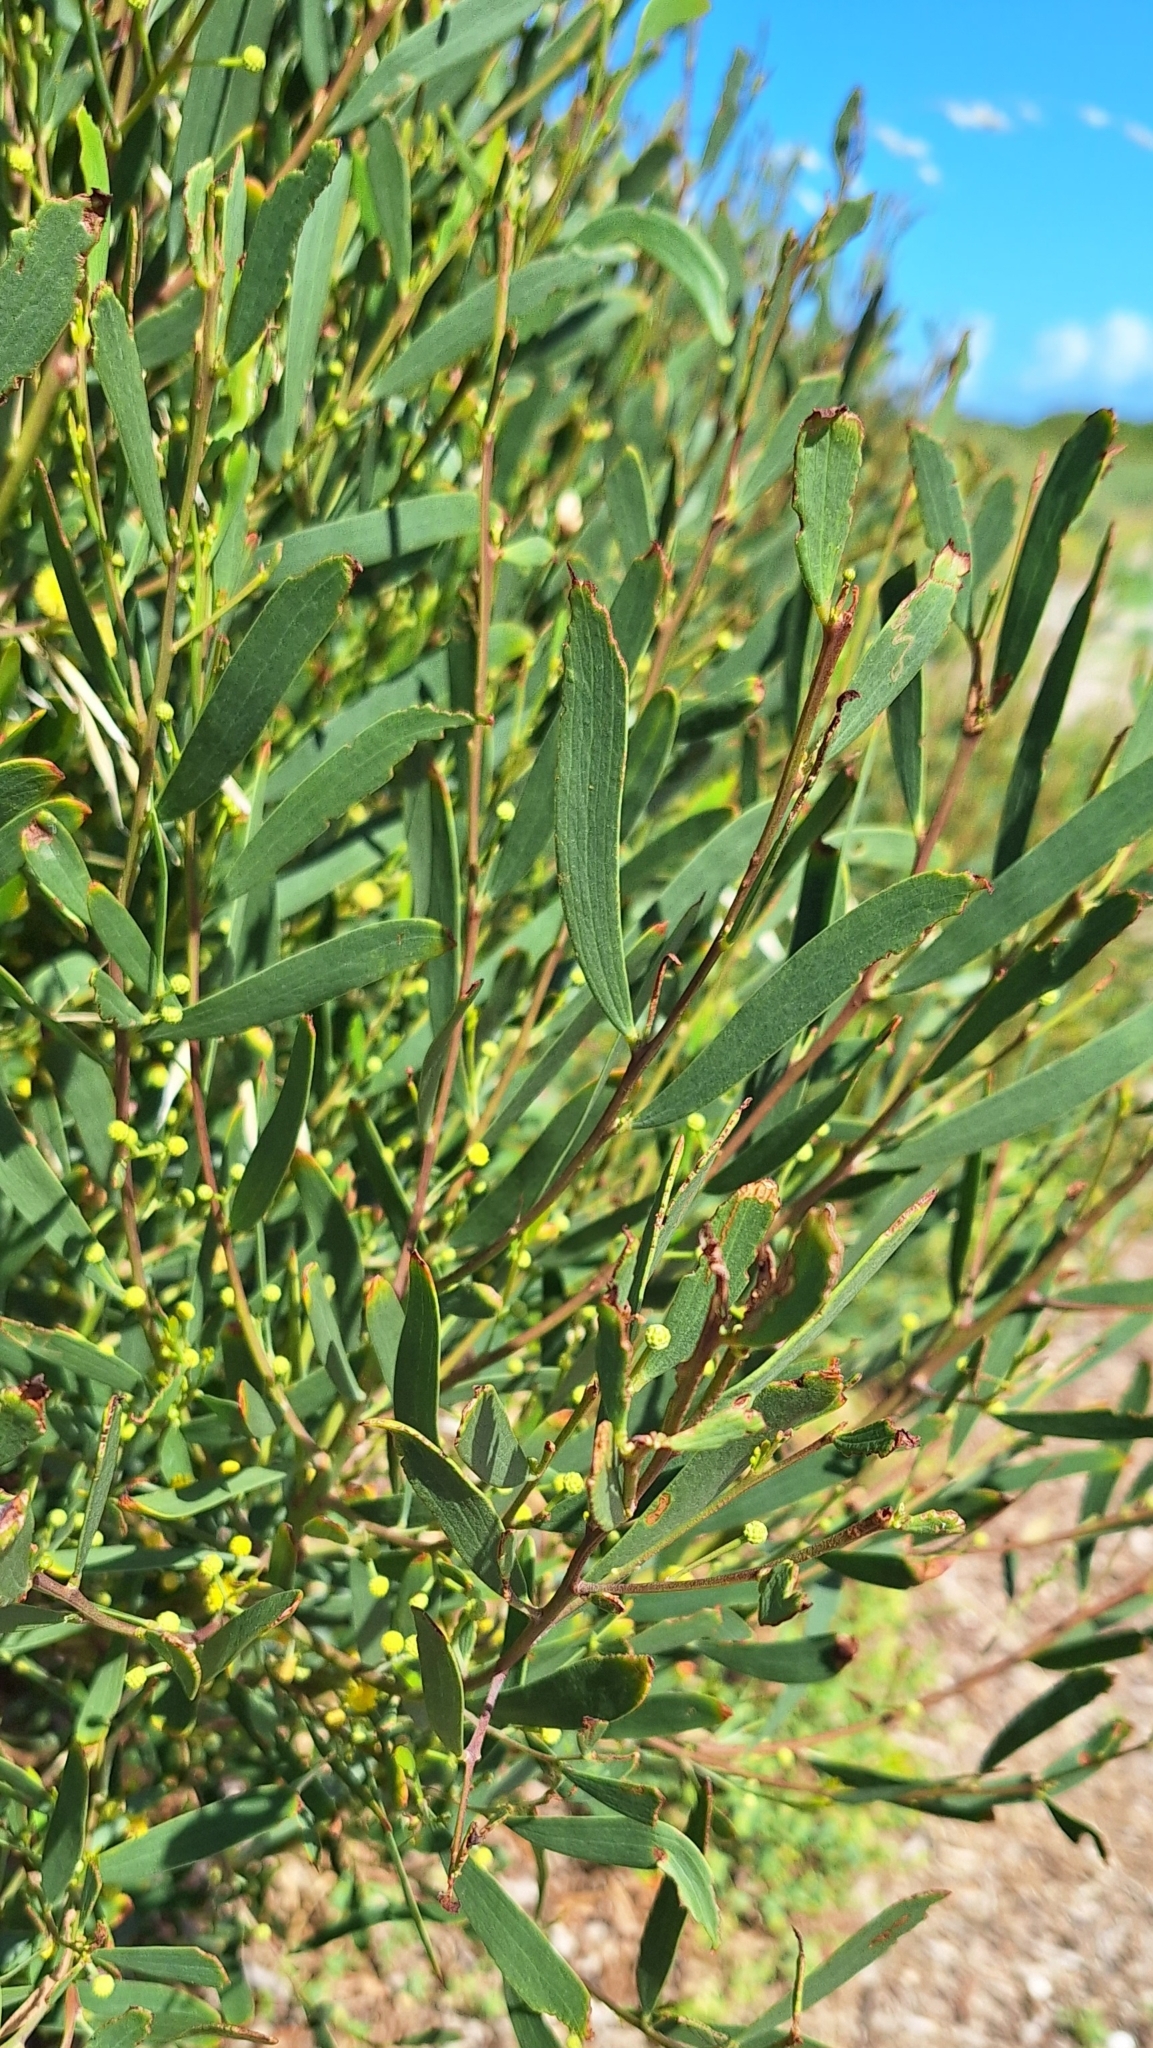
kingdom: Plantae
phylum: Tracheophyta
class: Magnoliopsida
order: Fabales
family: Fabaceae
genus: Acacia
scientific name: Acacia cyclops
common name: Coastal wattle
